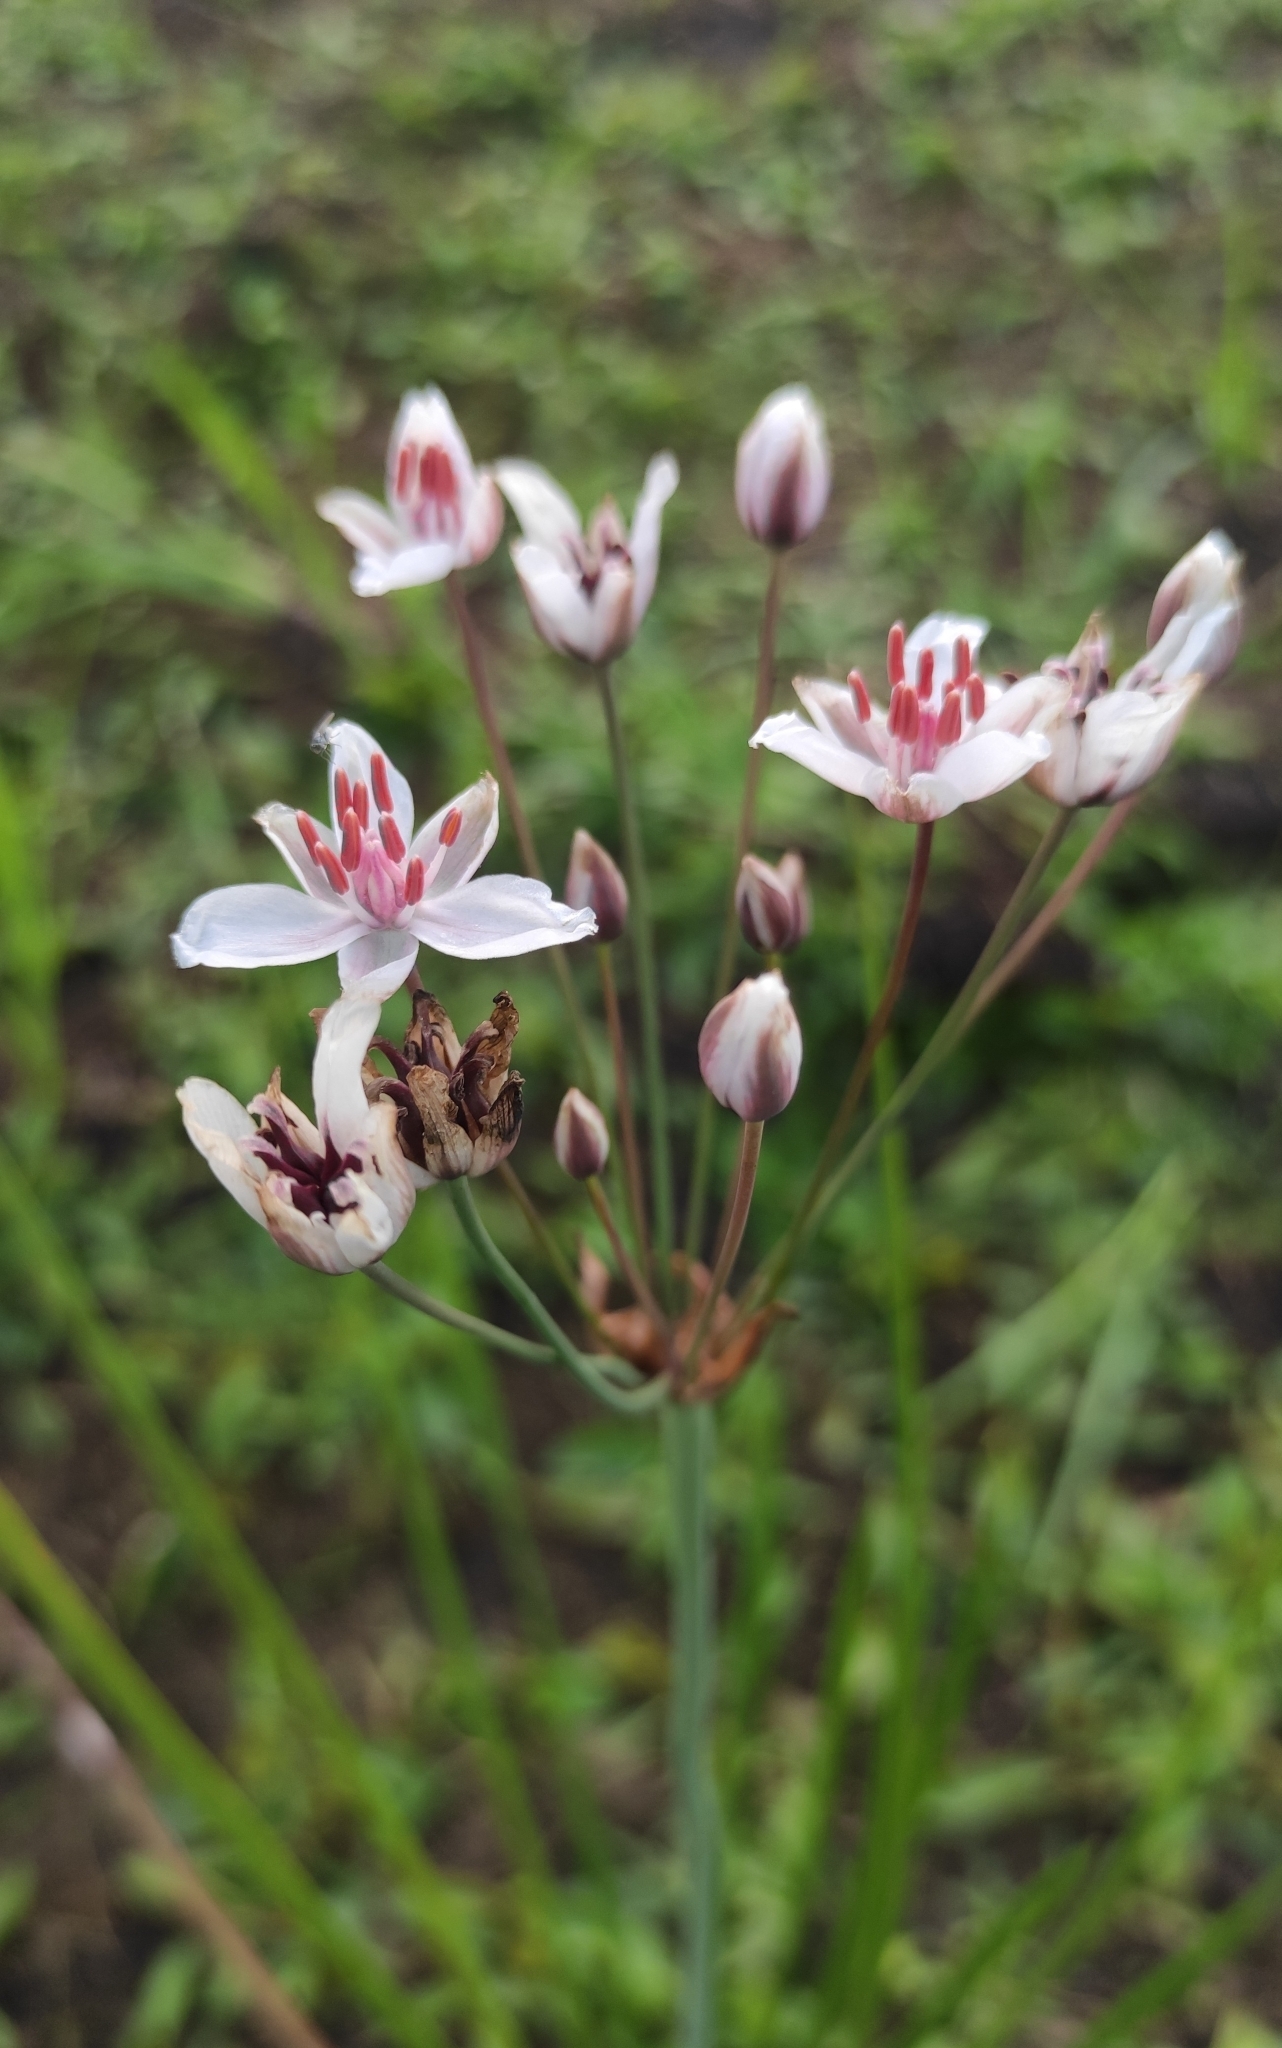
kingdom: Plantae
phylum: Tracheophyta
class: Liliopsida
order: Alismatales
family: Butomaceae
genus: Butomus
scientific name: Butomus umbellatus
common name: Flowering-rush
